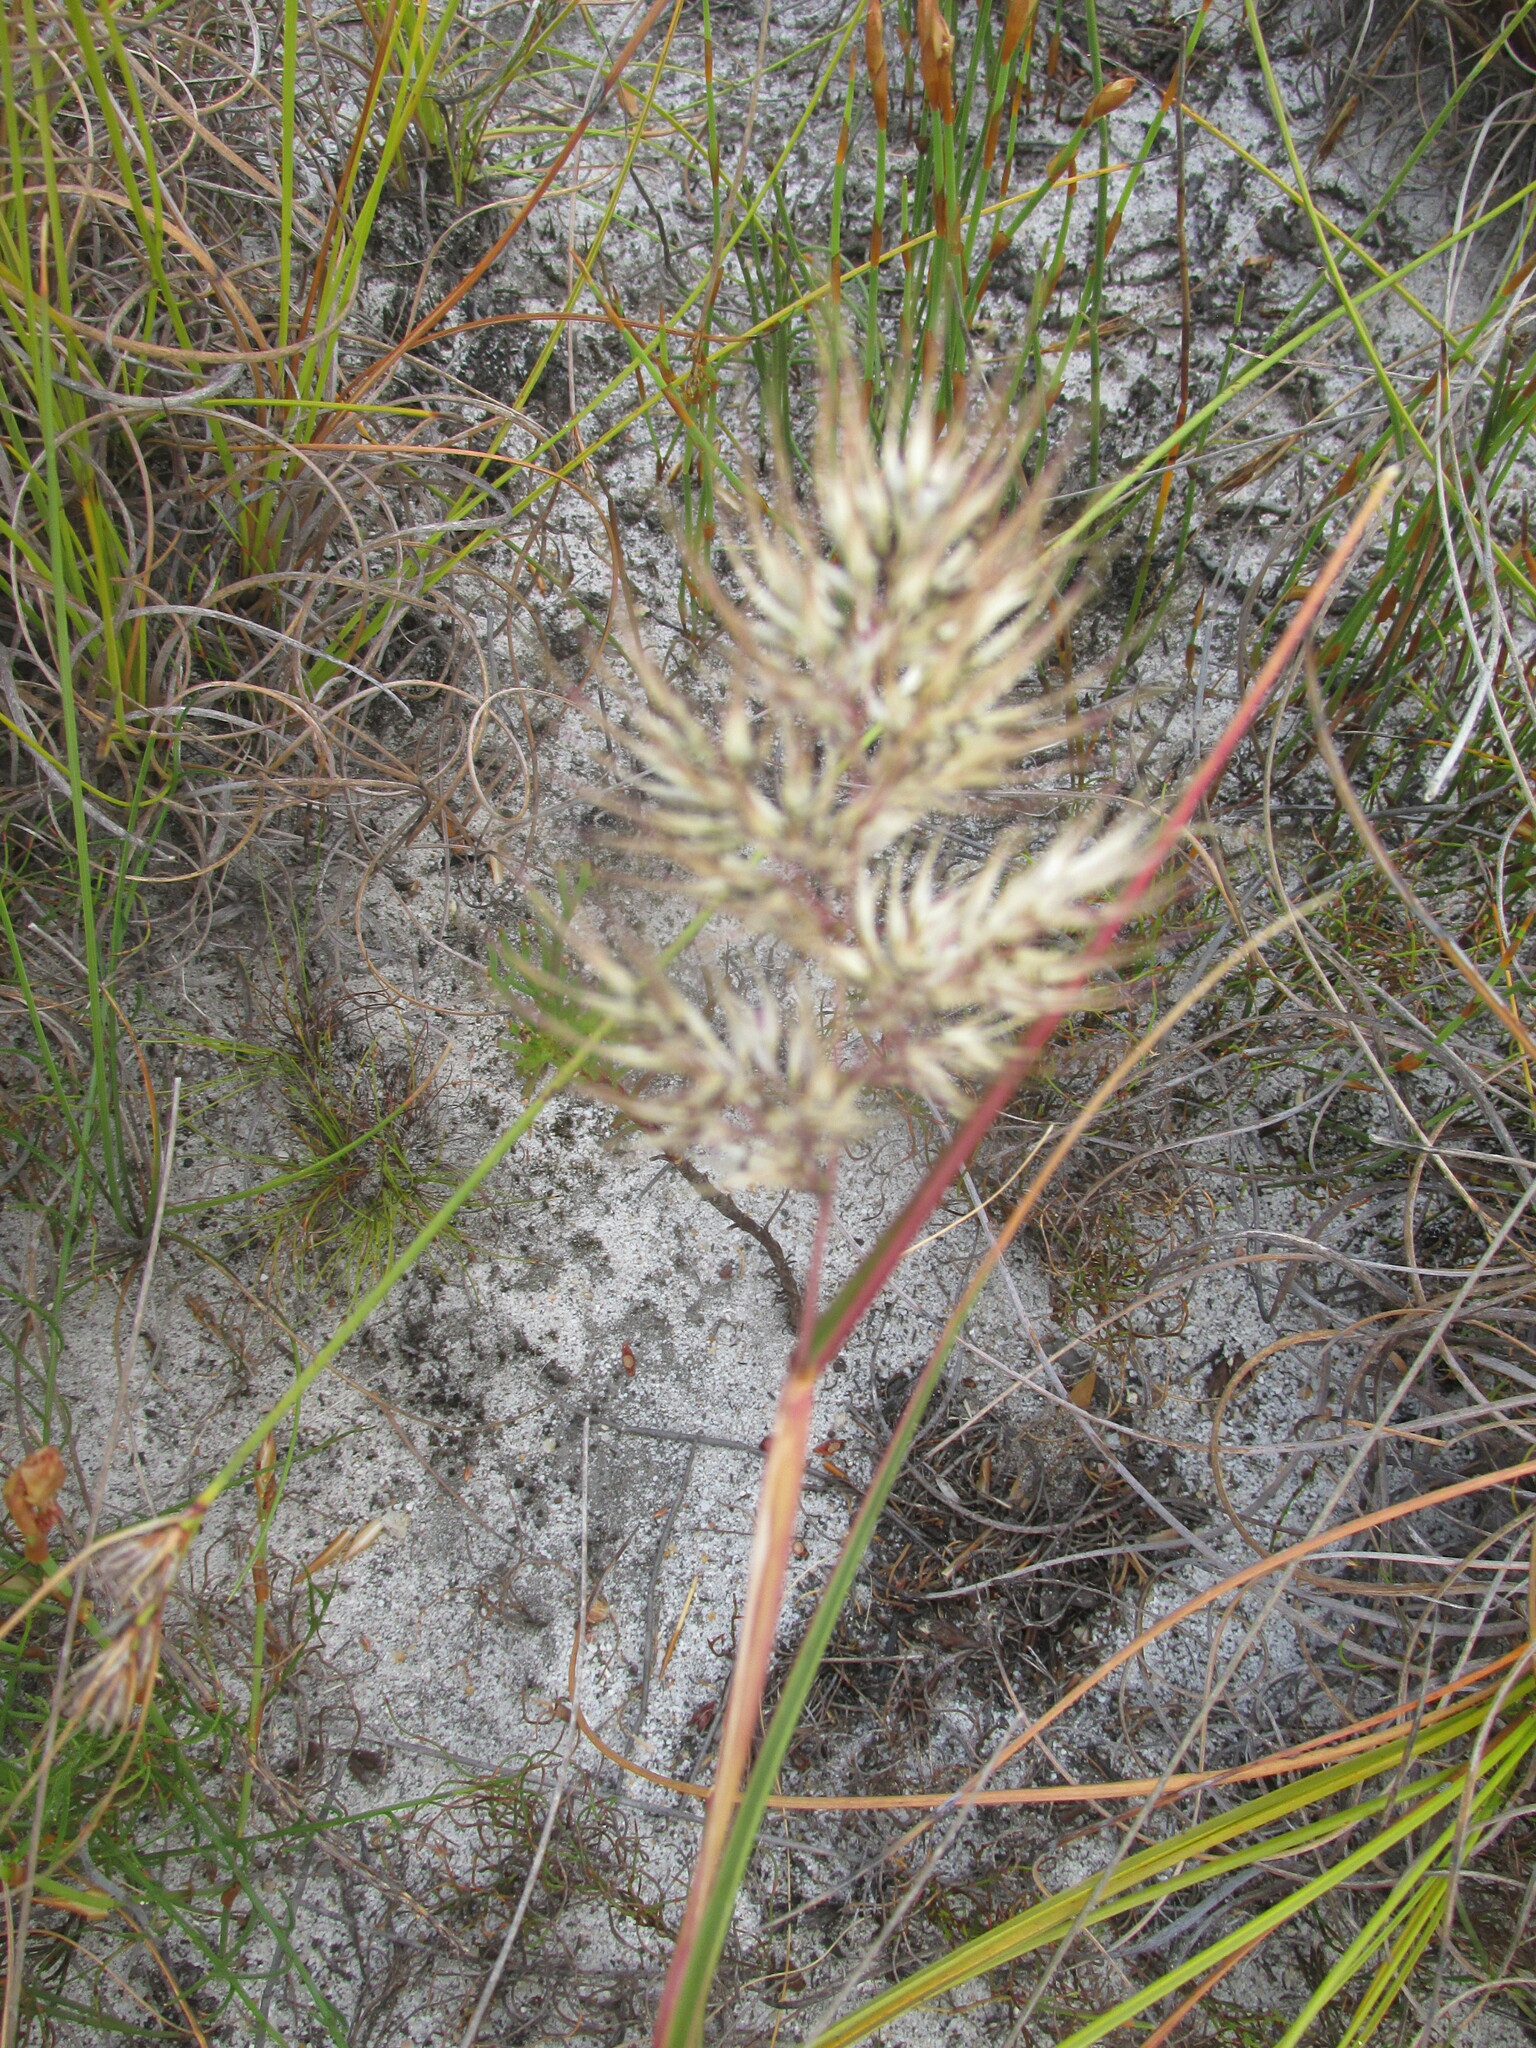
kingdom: Plantae
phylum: Tracheophyta
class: Liliopsida
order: Poales
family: Poaceae
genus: Pentameris
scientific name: Pentameris curvifolia
